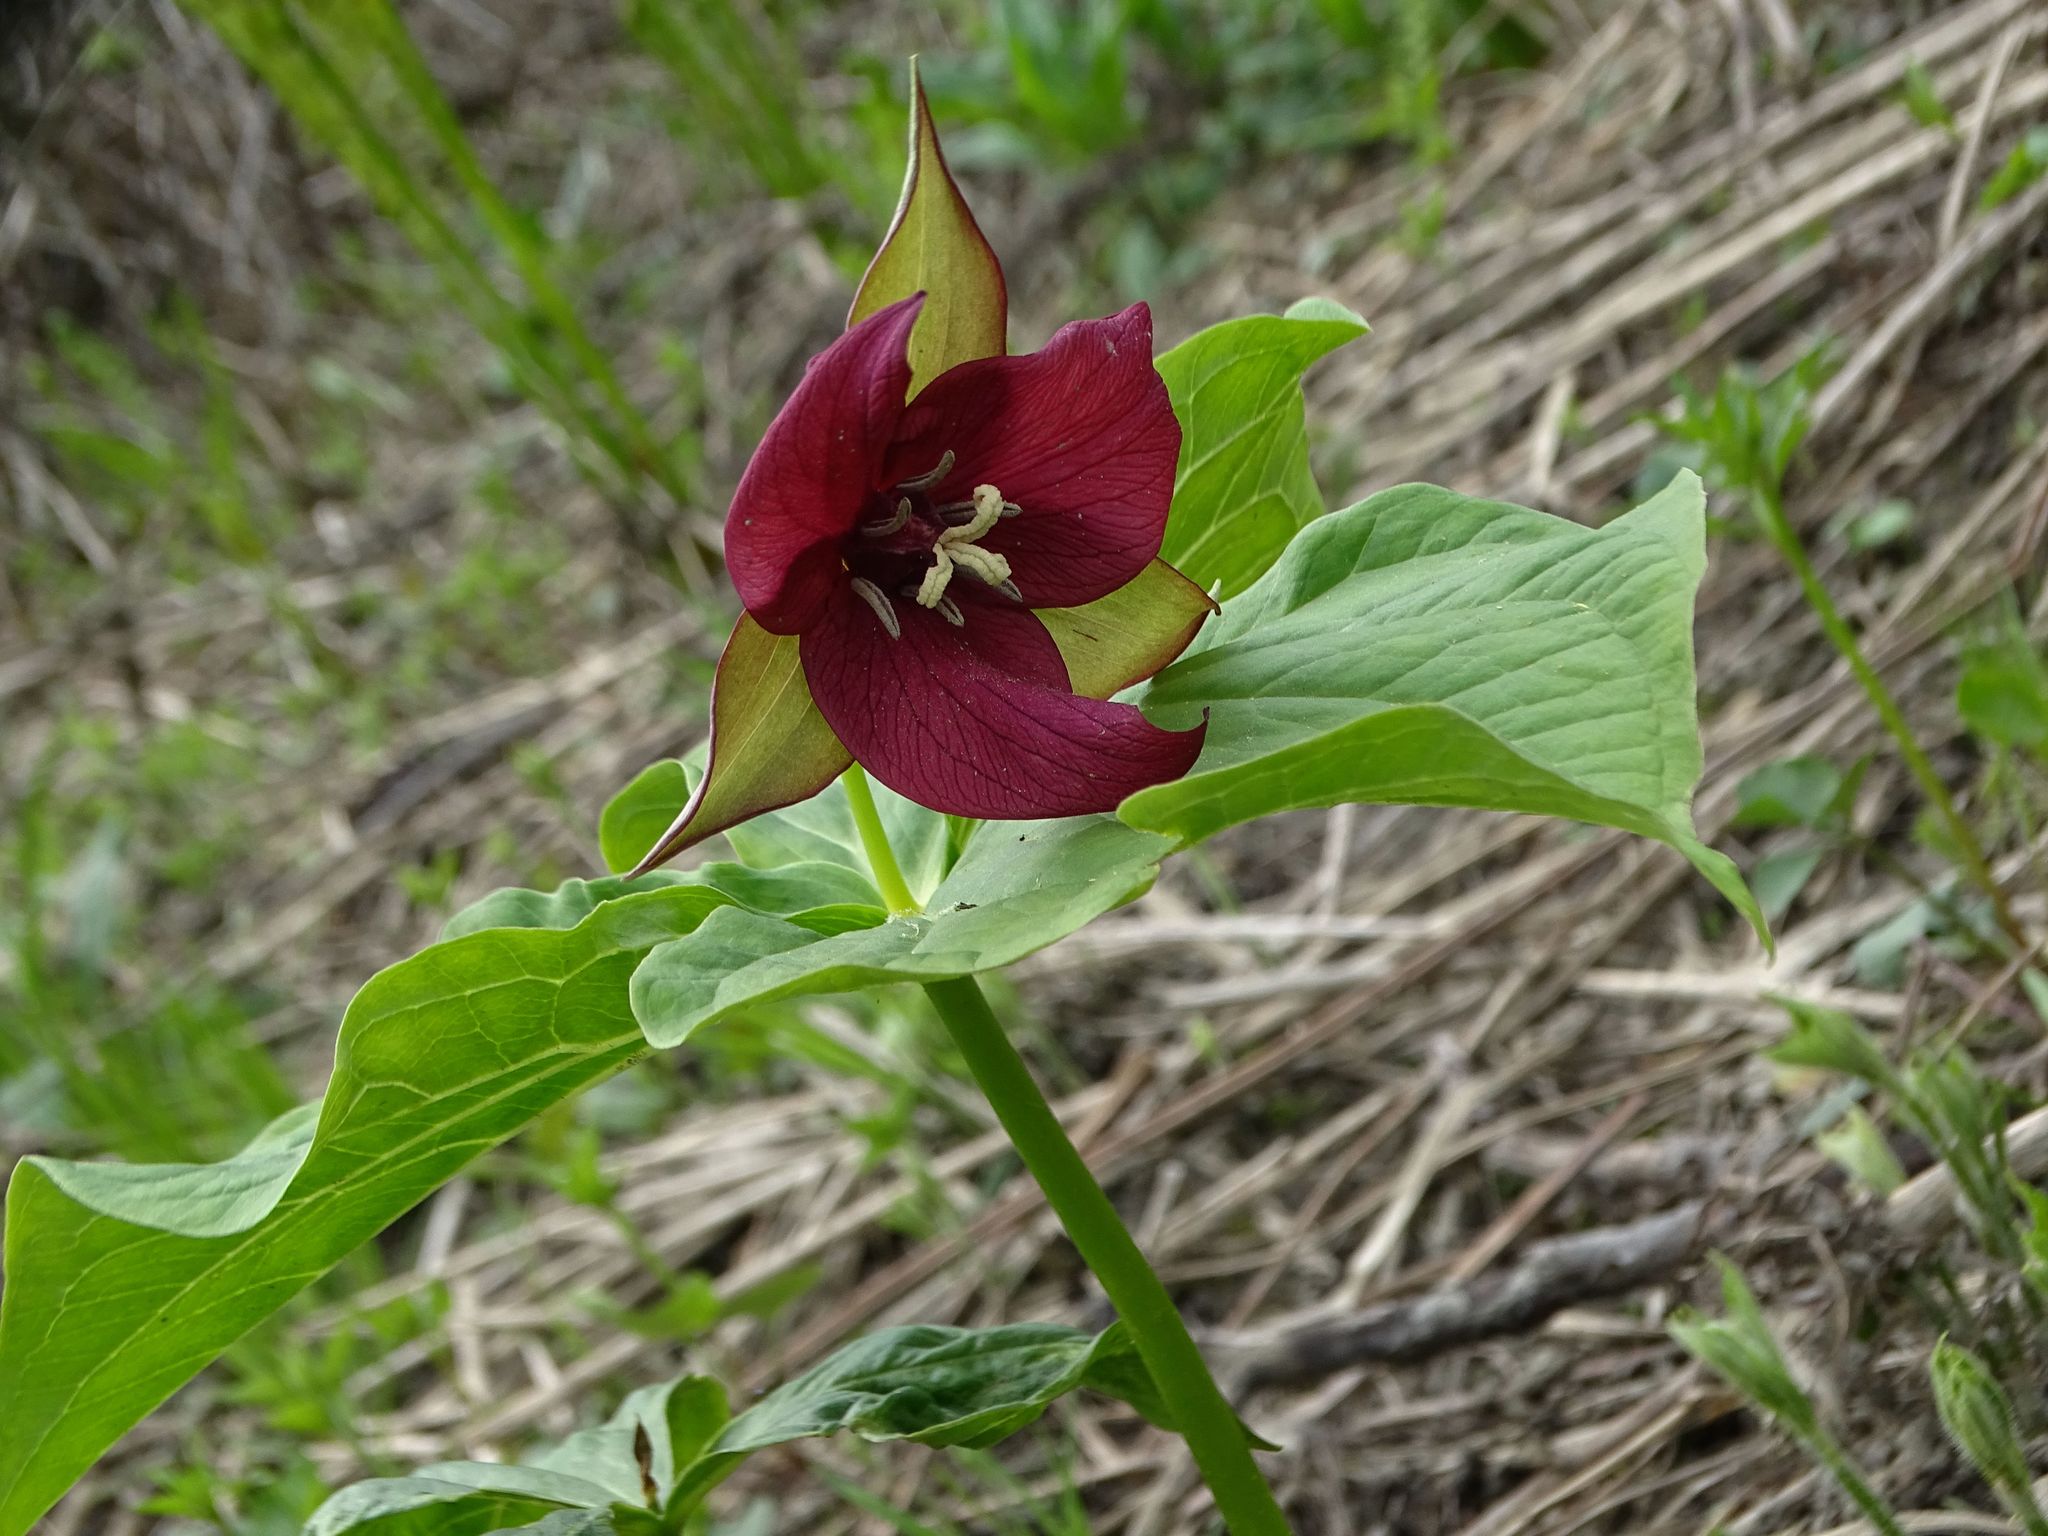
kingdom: Plantae
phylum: Tracheophyta
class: Liliopsida
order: Liliales
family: Melanthiaceae
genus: Trillium
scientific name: Trillium erectum
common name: Purple trillium
